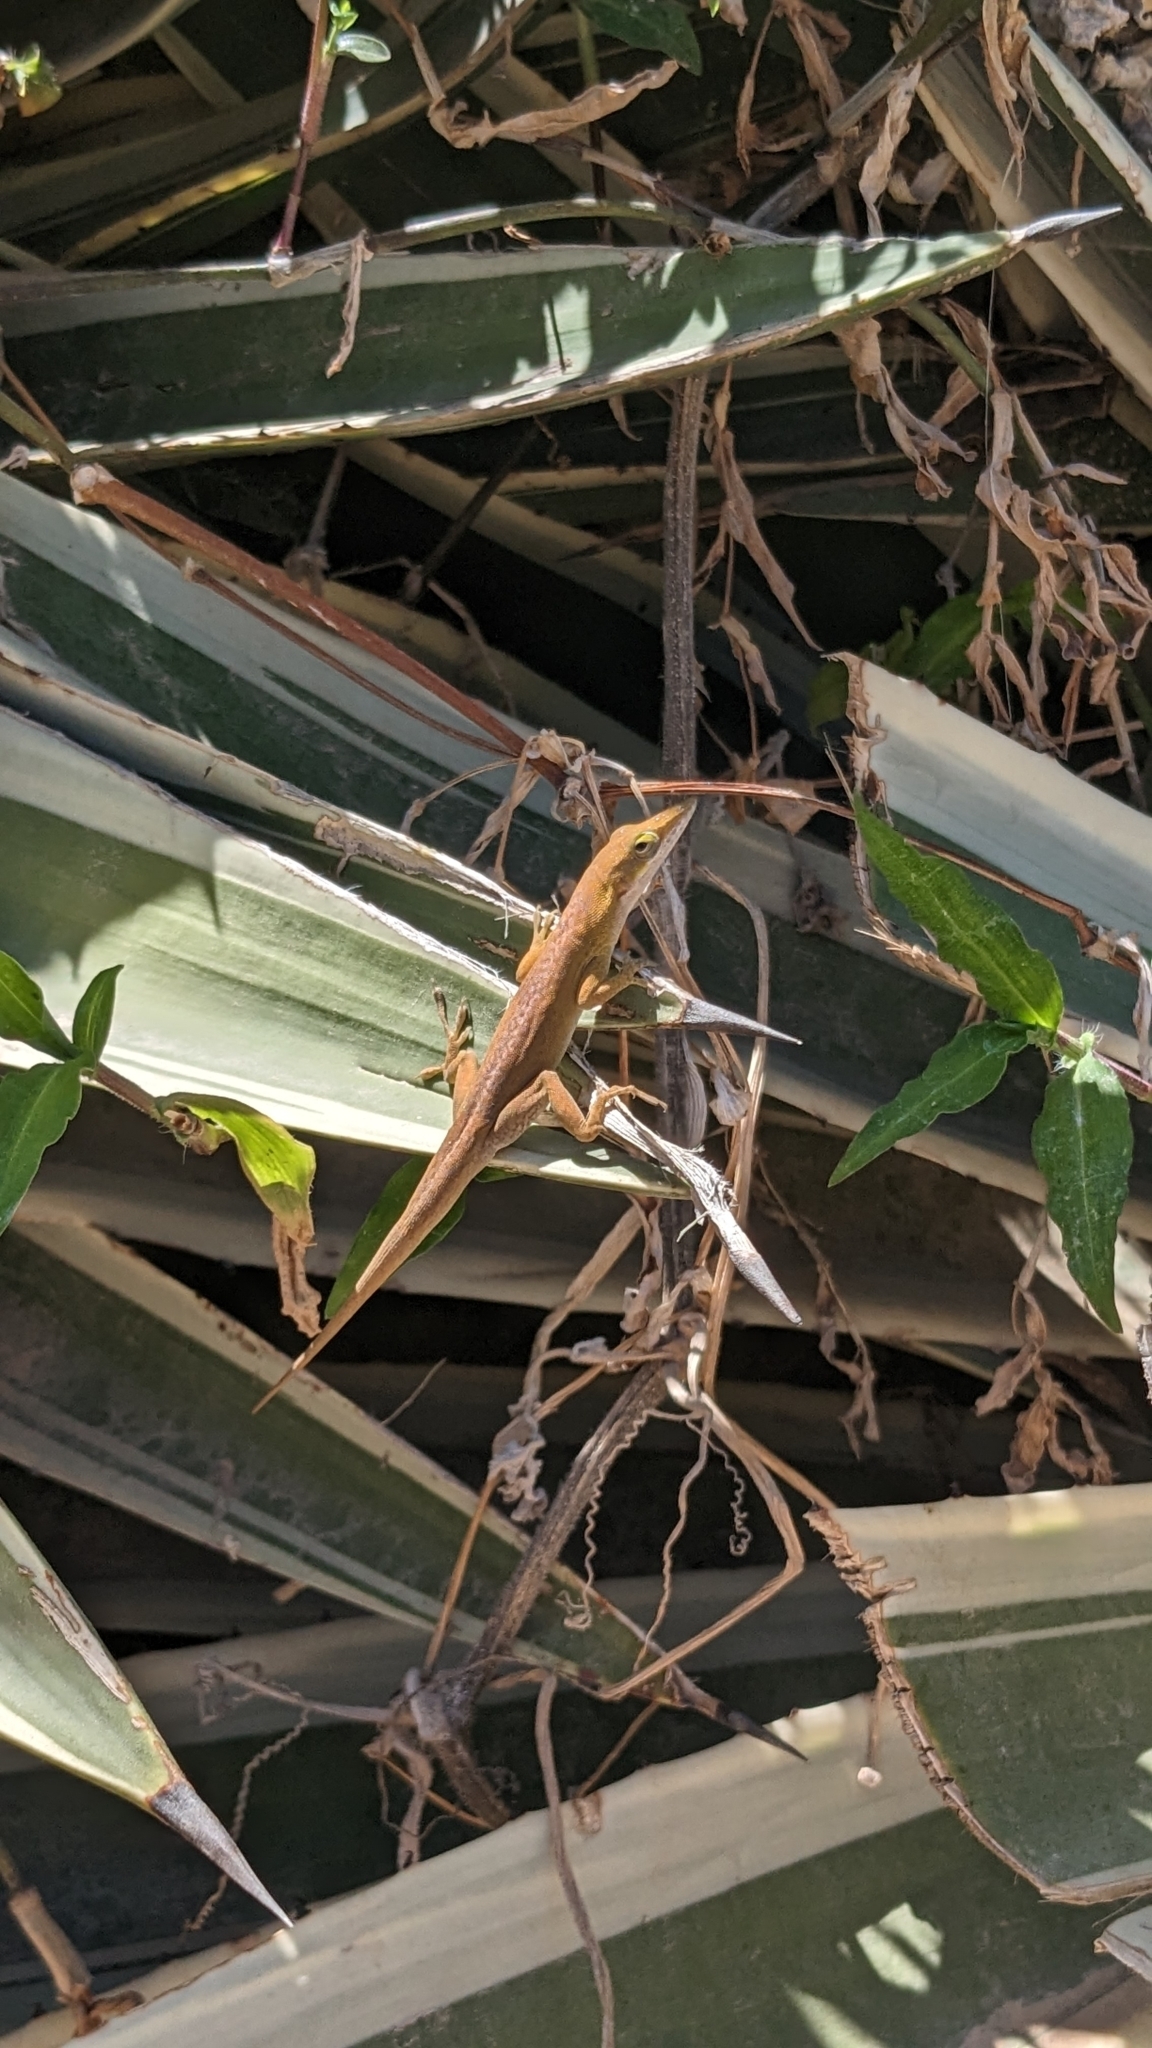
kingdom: Animalia
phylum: Chordata
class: Squamata
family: Dactyloidae
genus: Anolis
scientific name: Anolis porcatus
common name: Cuban green anole
